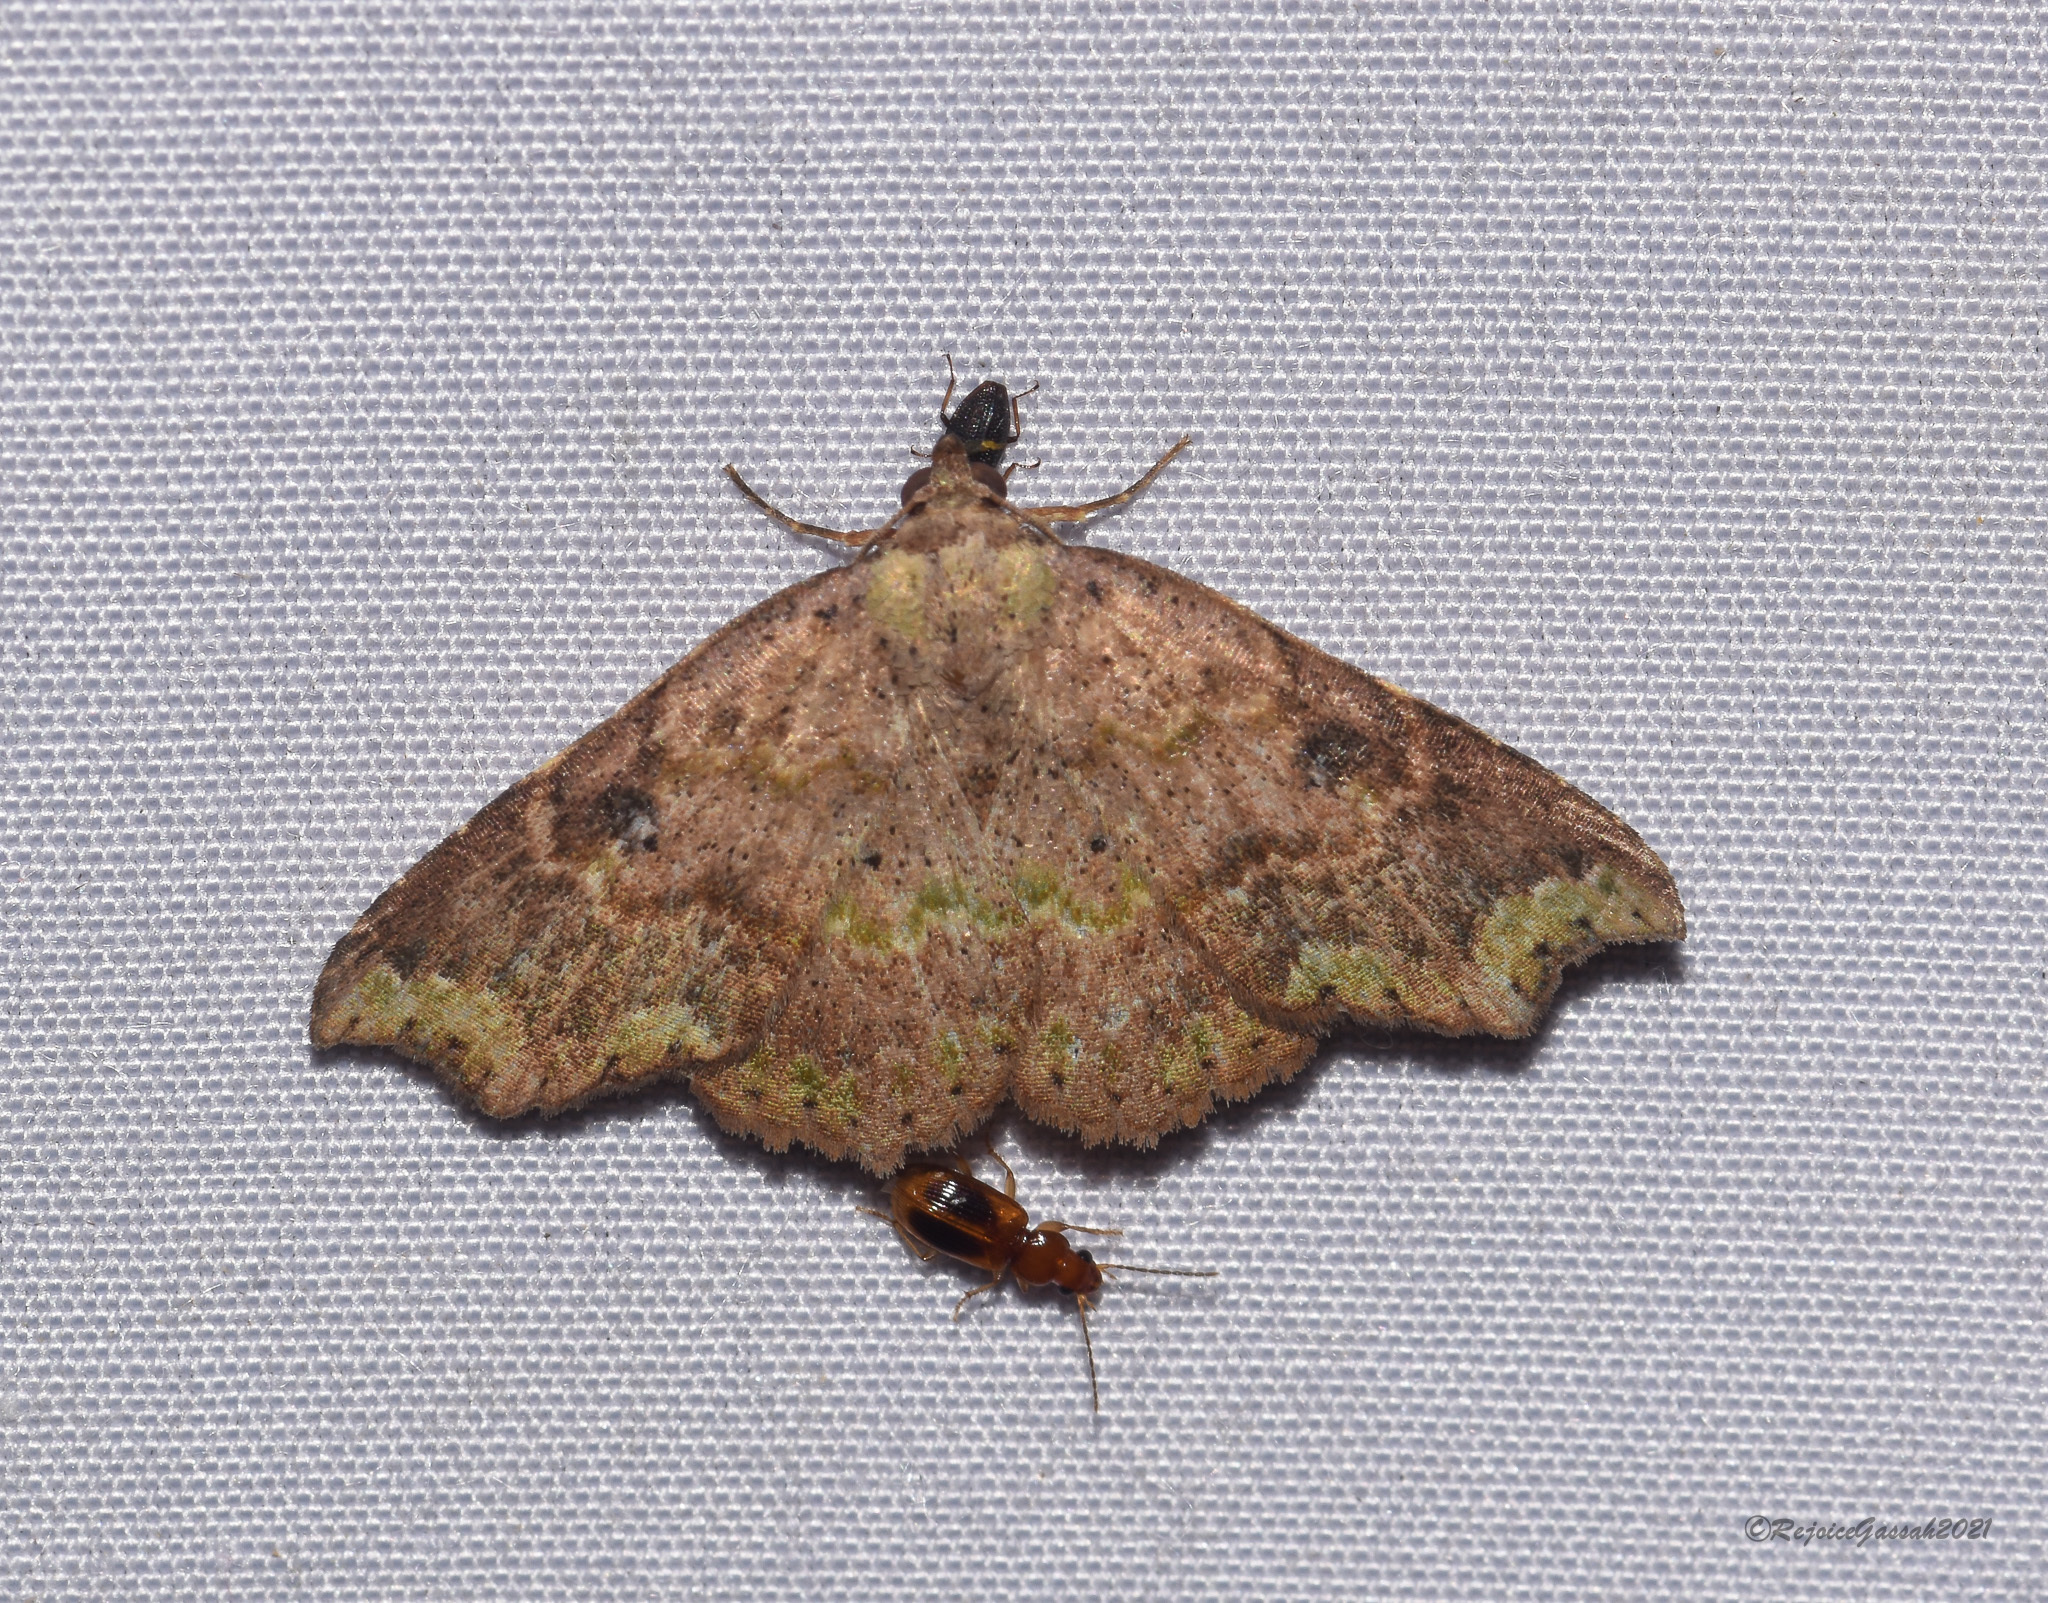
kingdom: Animalia
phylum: Arthropoda
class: Insecta
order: Lepidoptera
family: Erebidae
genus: Laspeyria
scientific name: Laspeyria viridicincta
